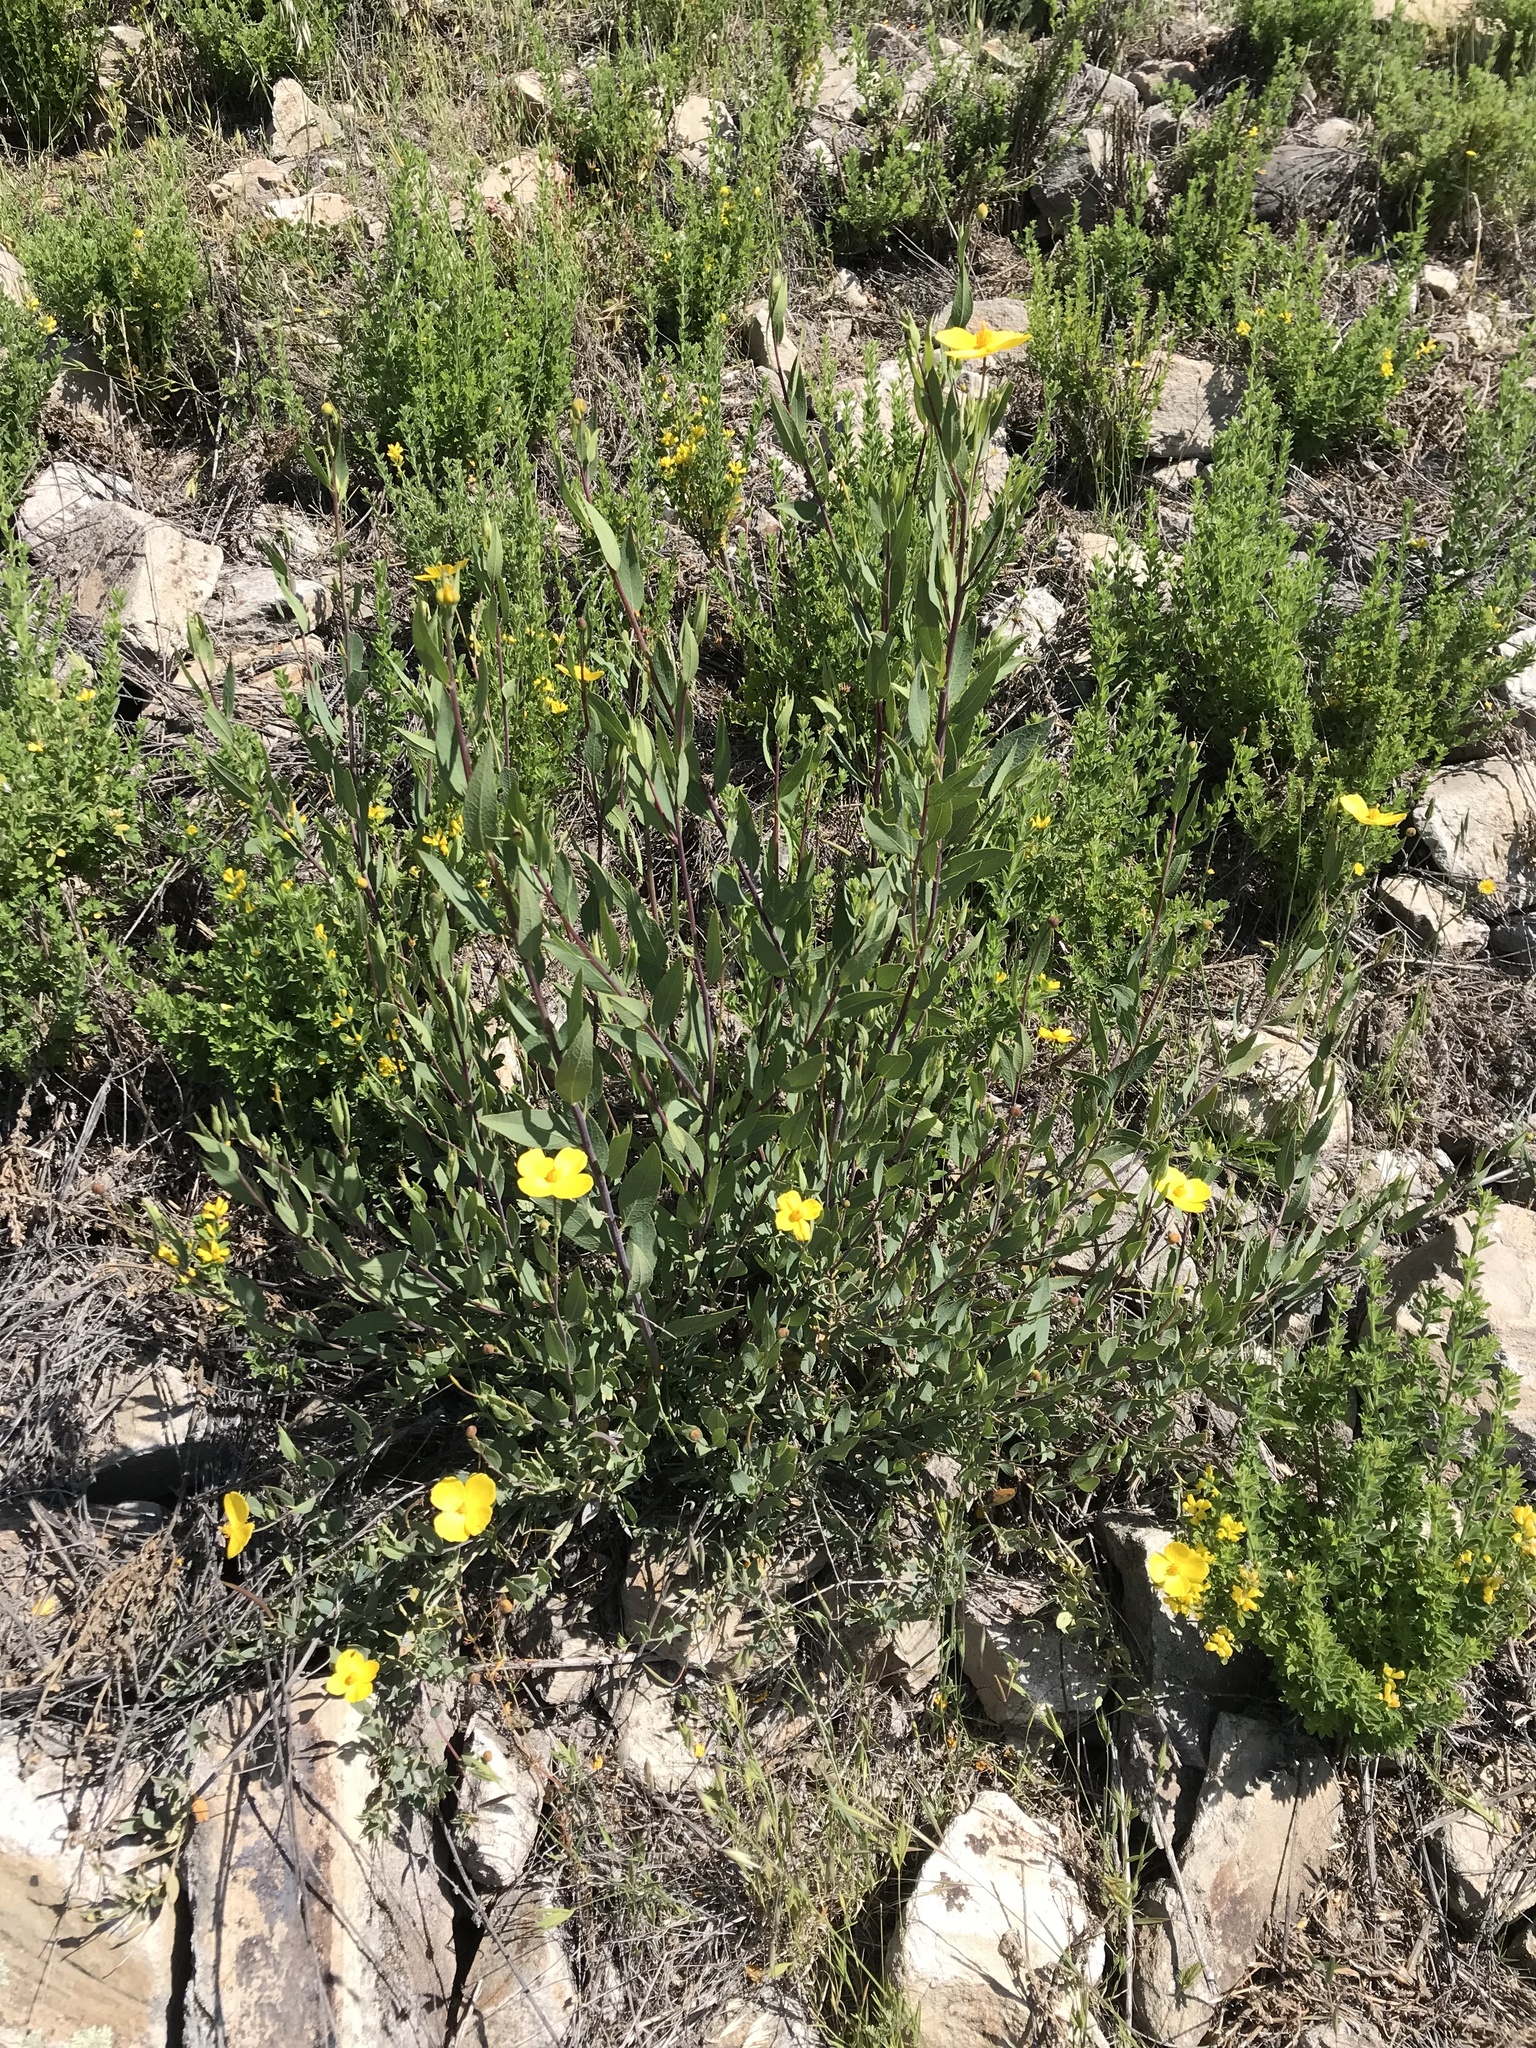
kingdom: Plantae
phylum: Tracheophyta
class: Magnoliopsida
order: Ranunculales
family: Papaveraceae
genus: Dendromecon
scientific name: Dendromecon rigida
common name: Tree poppy
